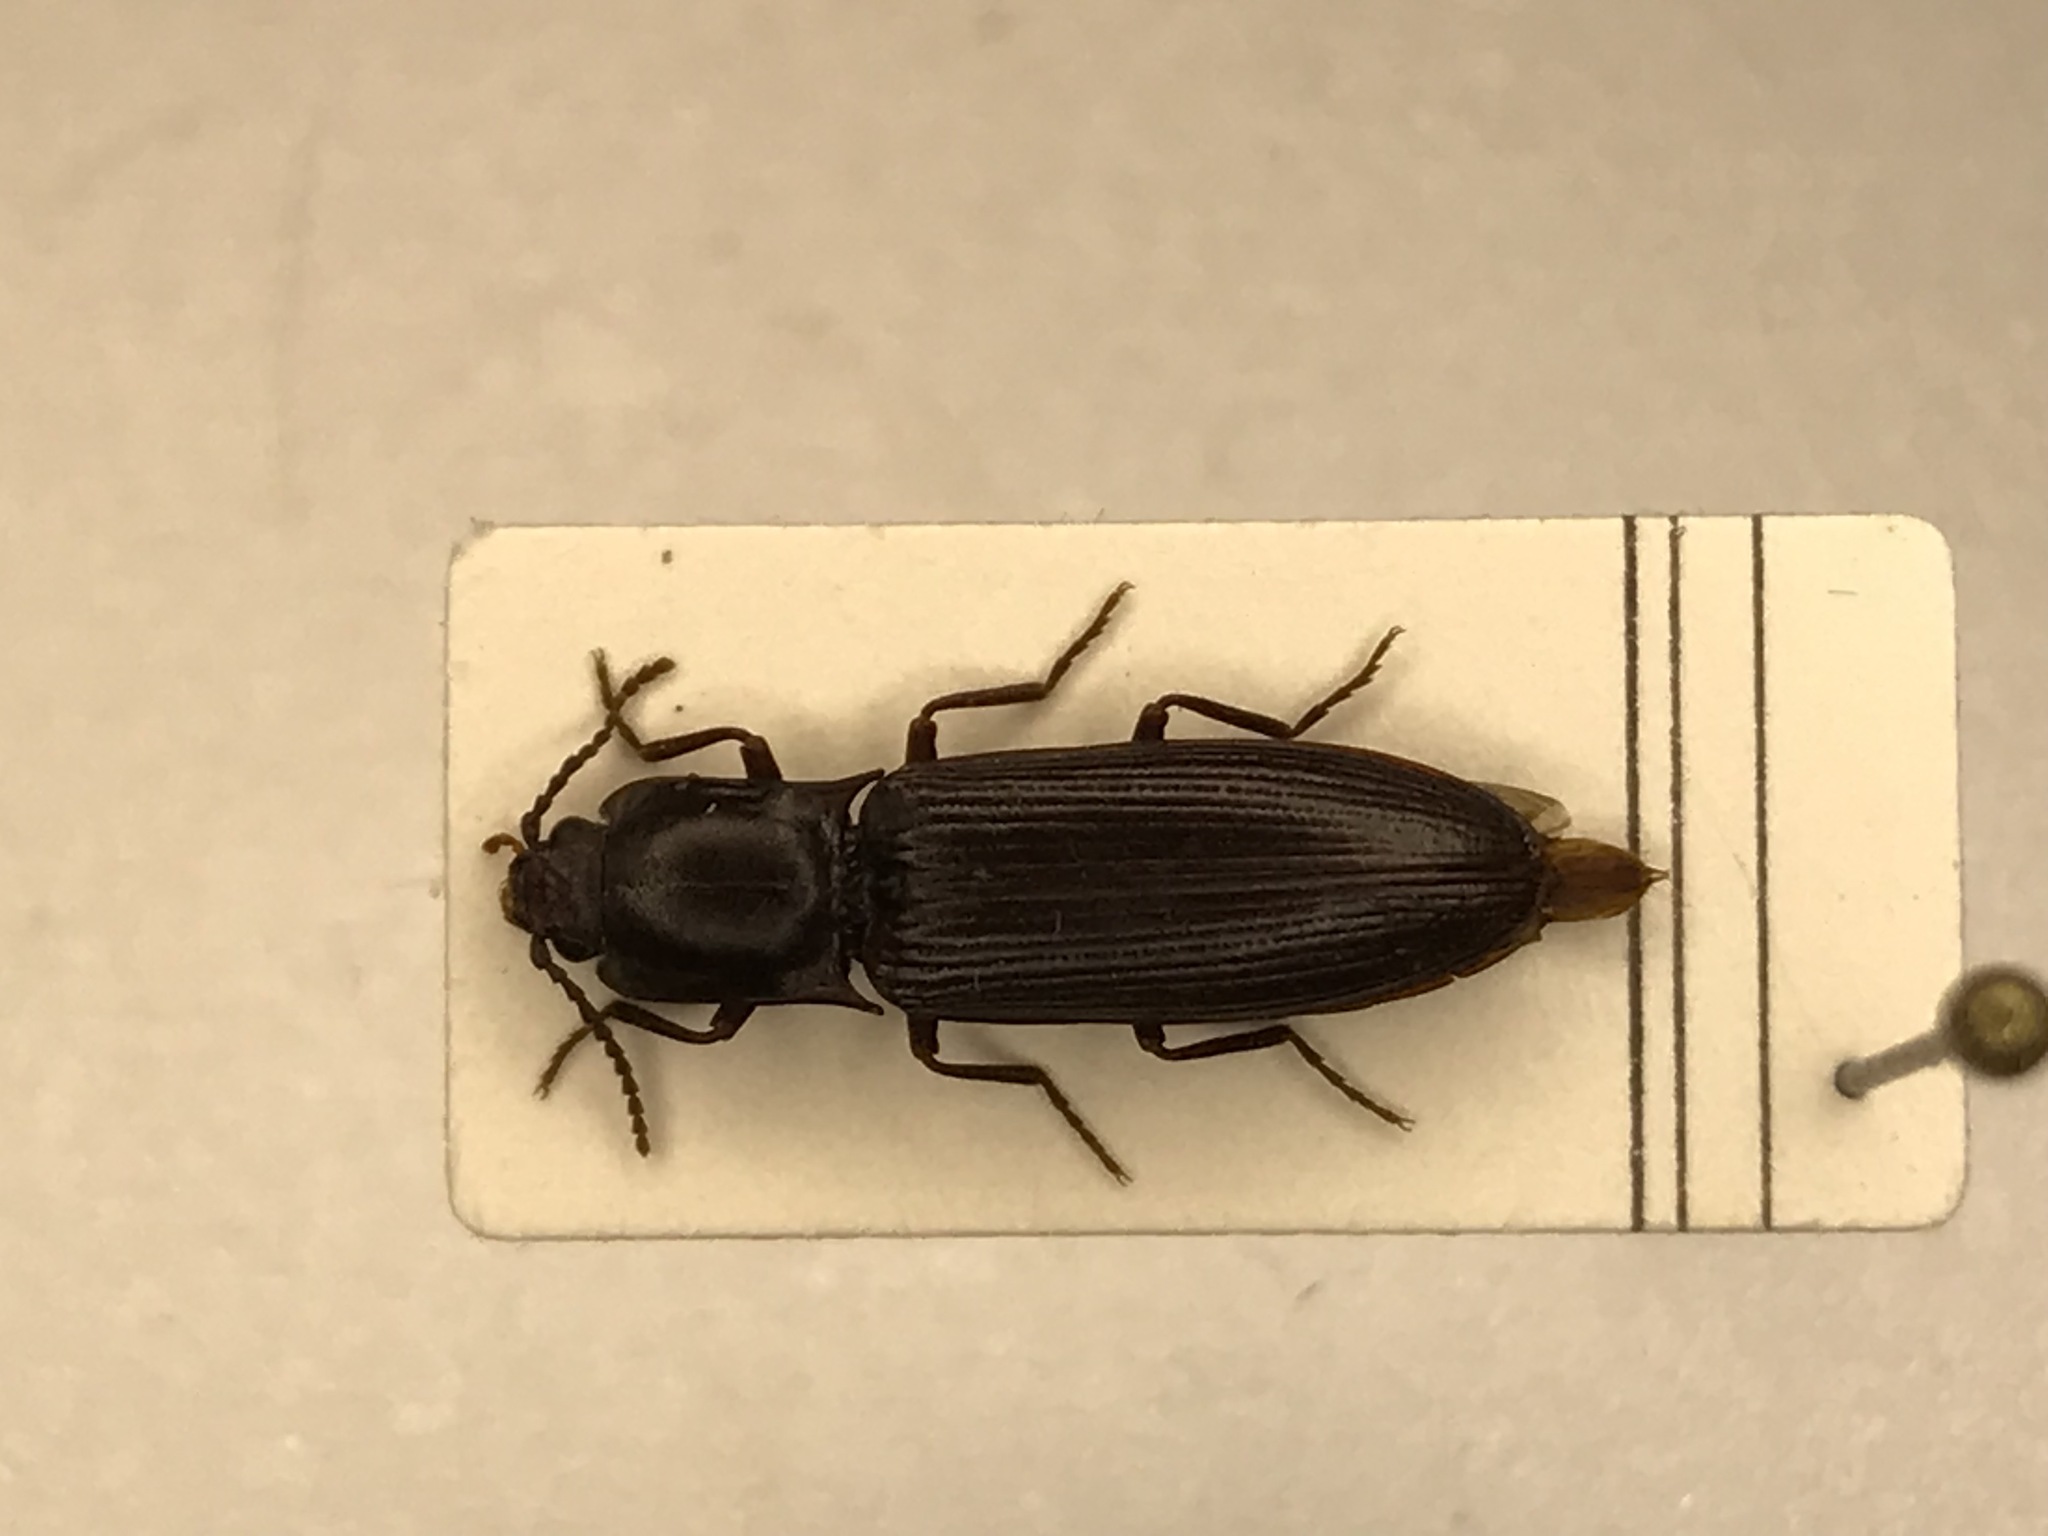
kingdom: Animalia
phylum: Arthropoda
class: Insecta
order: Coleoptera
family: Elateridae
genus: Laneganus
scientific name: Laneganus sulcicollis
